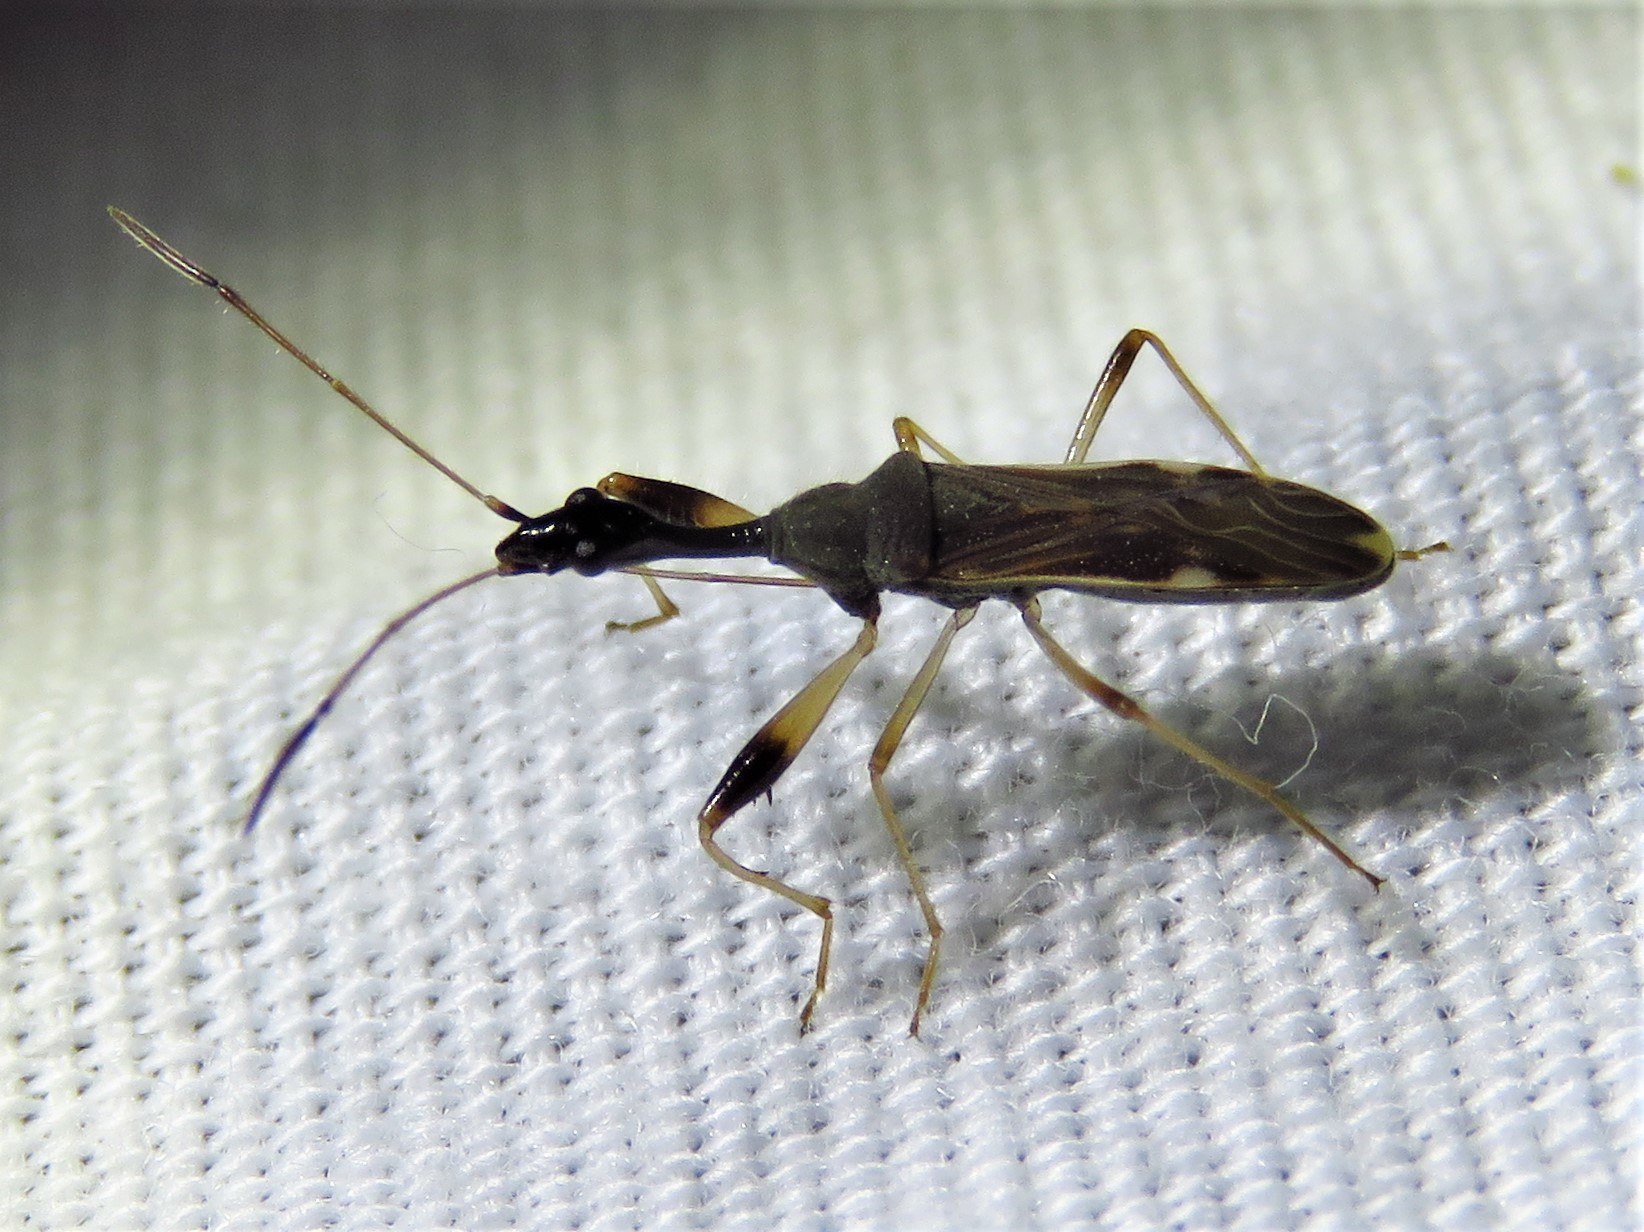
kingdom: Animalia
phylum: Arthropoda
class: Insecta
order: Hemiptera
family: Rhyparochromidae
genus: Myodocha
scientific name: Myodocha serripes
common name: Long-necked seed bug
